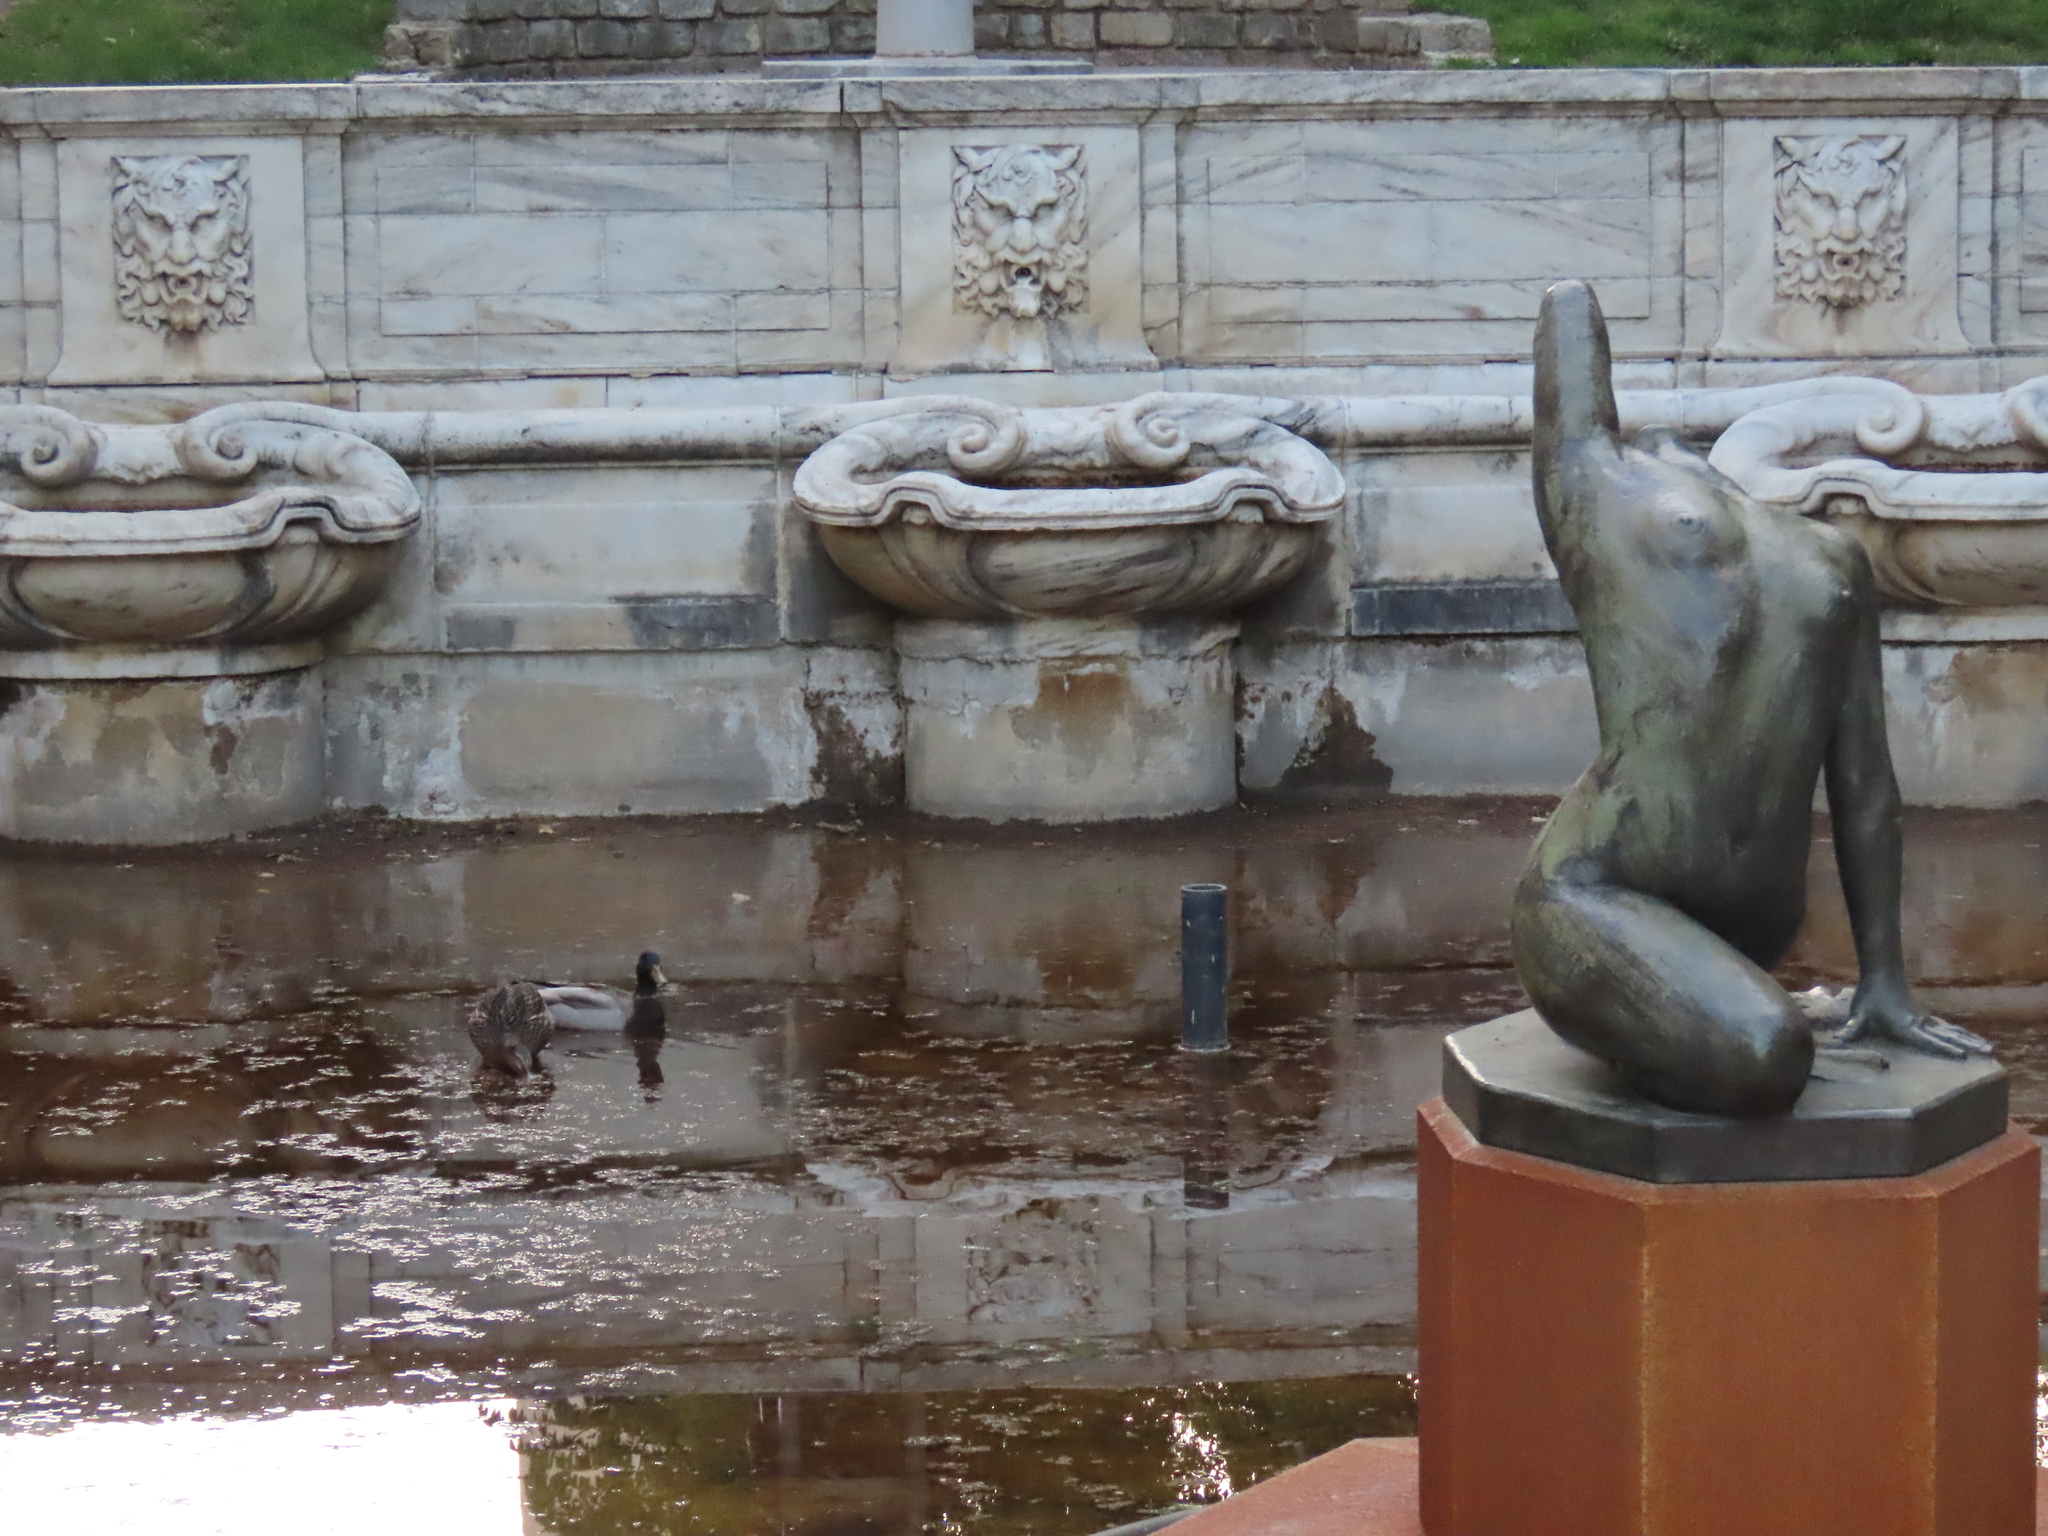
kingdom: Animalia
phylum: Chordata
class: Aves
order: Anseriformes
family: Anatidae
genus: Anas
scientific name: Anas platyrhynchos
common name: Mallard
